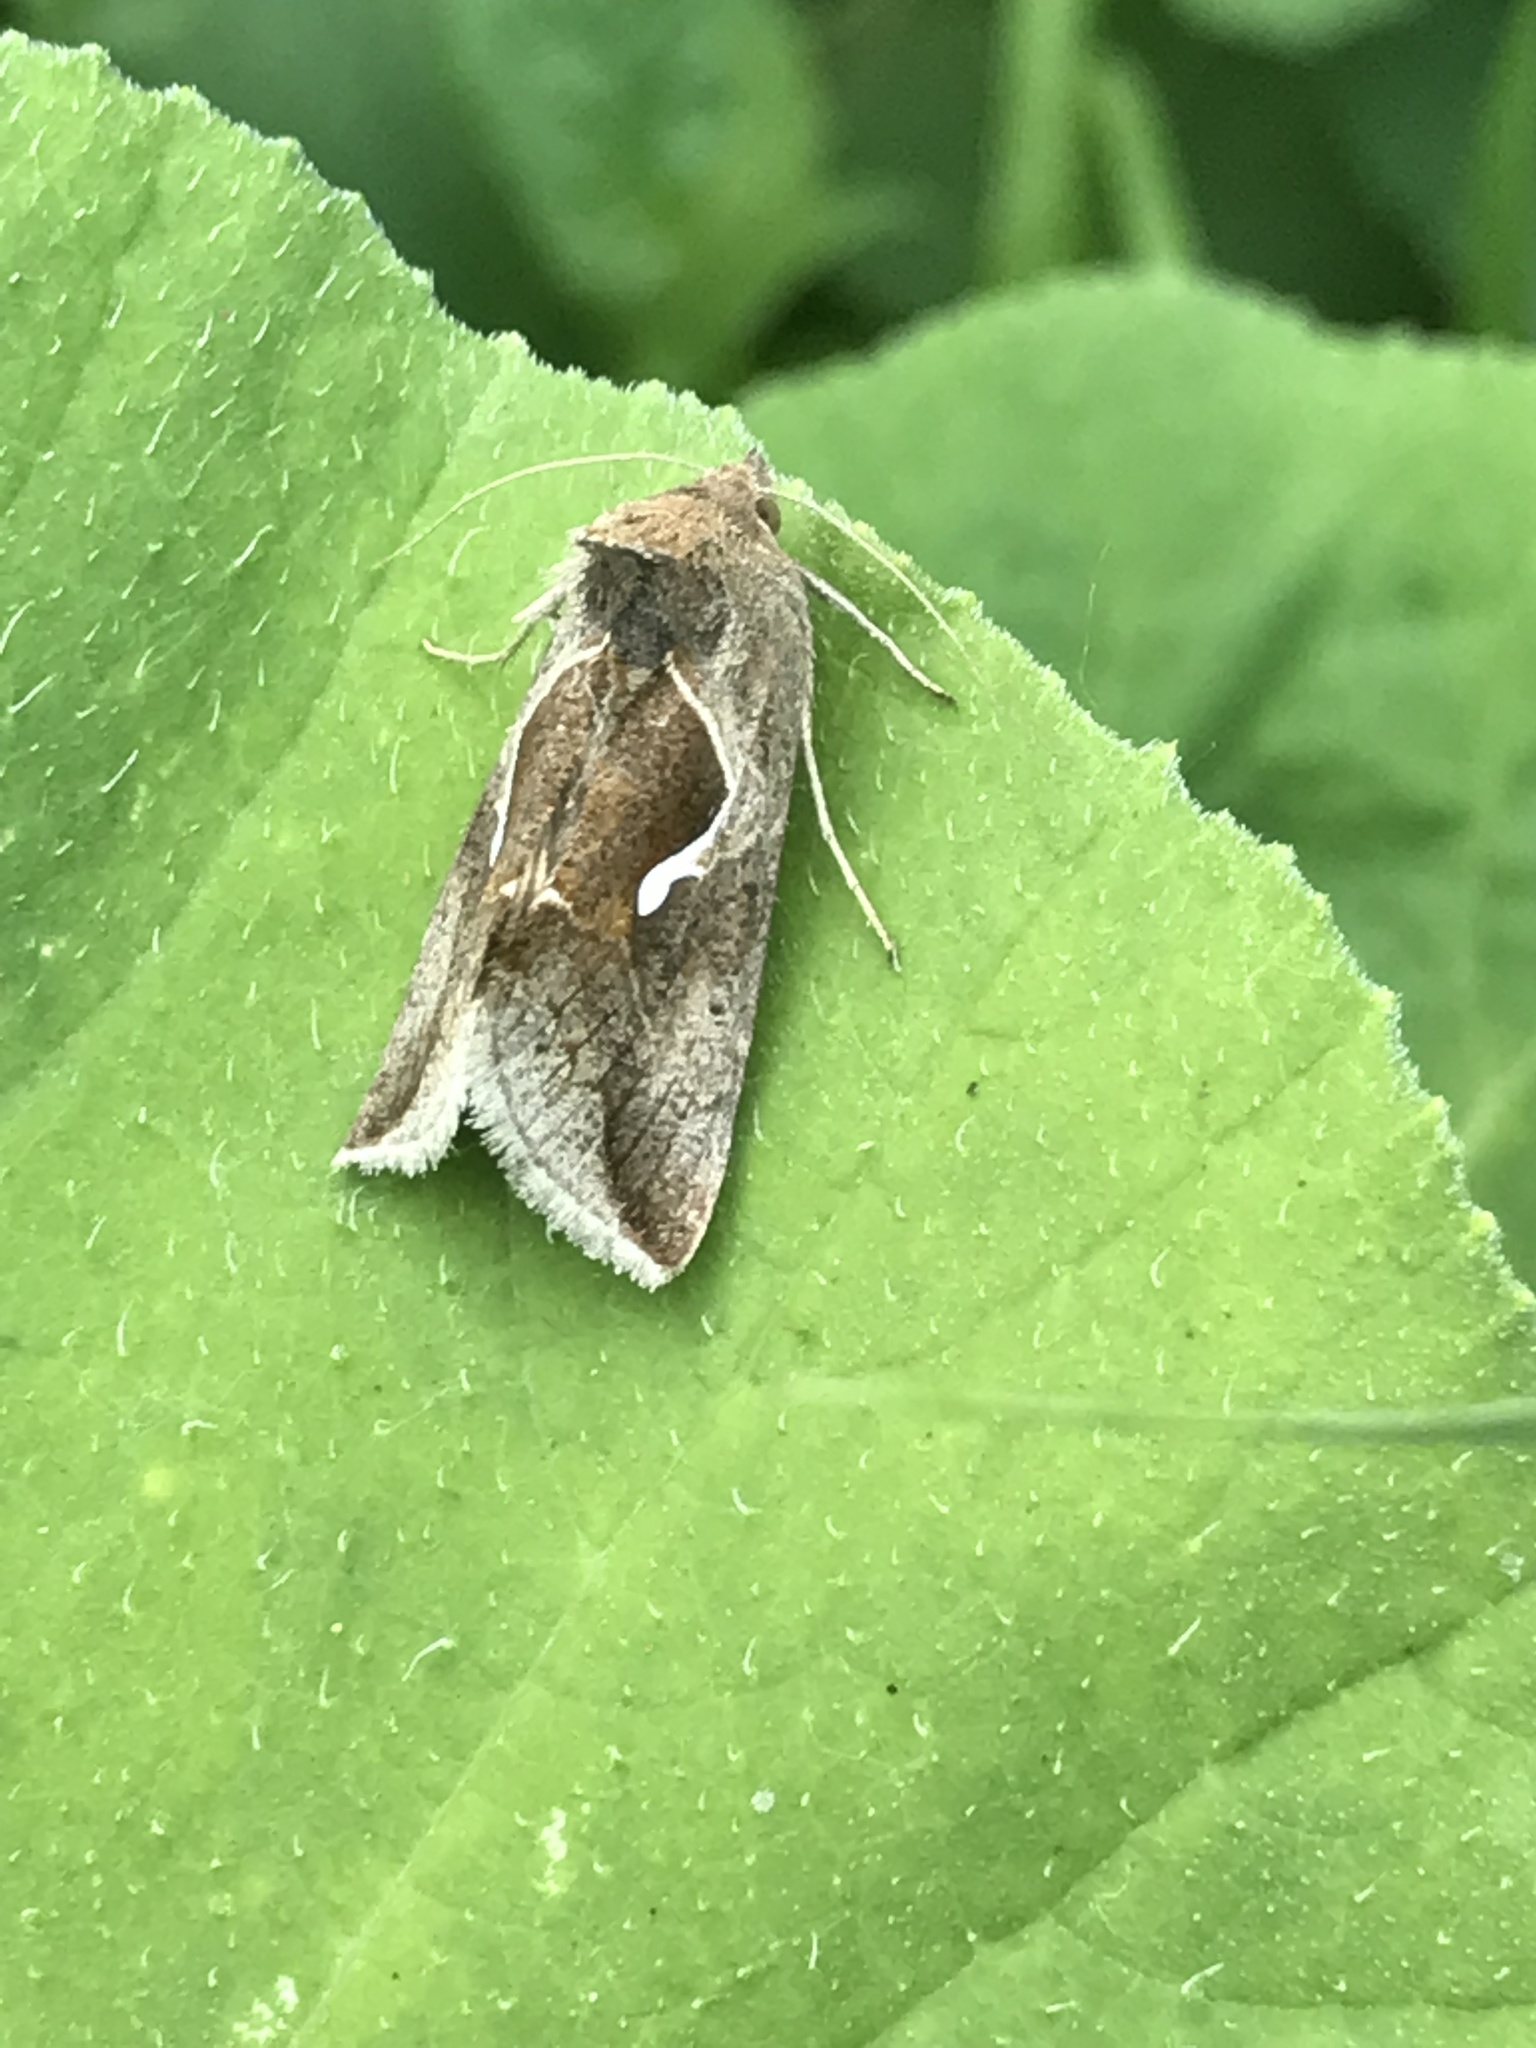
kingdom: Animalia
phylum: Arthropoda
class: Insecta
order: Lepidoptera
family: Noctuidae
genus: Anagrapha
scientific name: Anagrapha falcifera
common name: Celery looper
